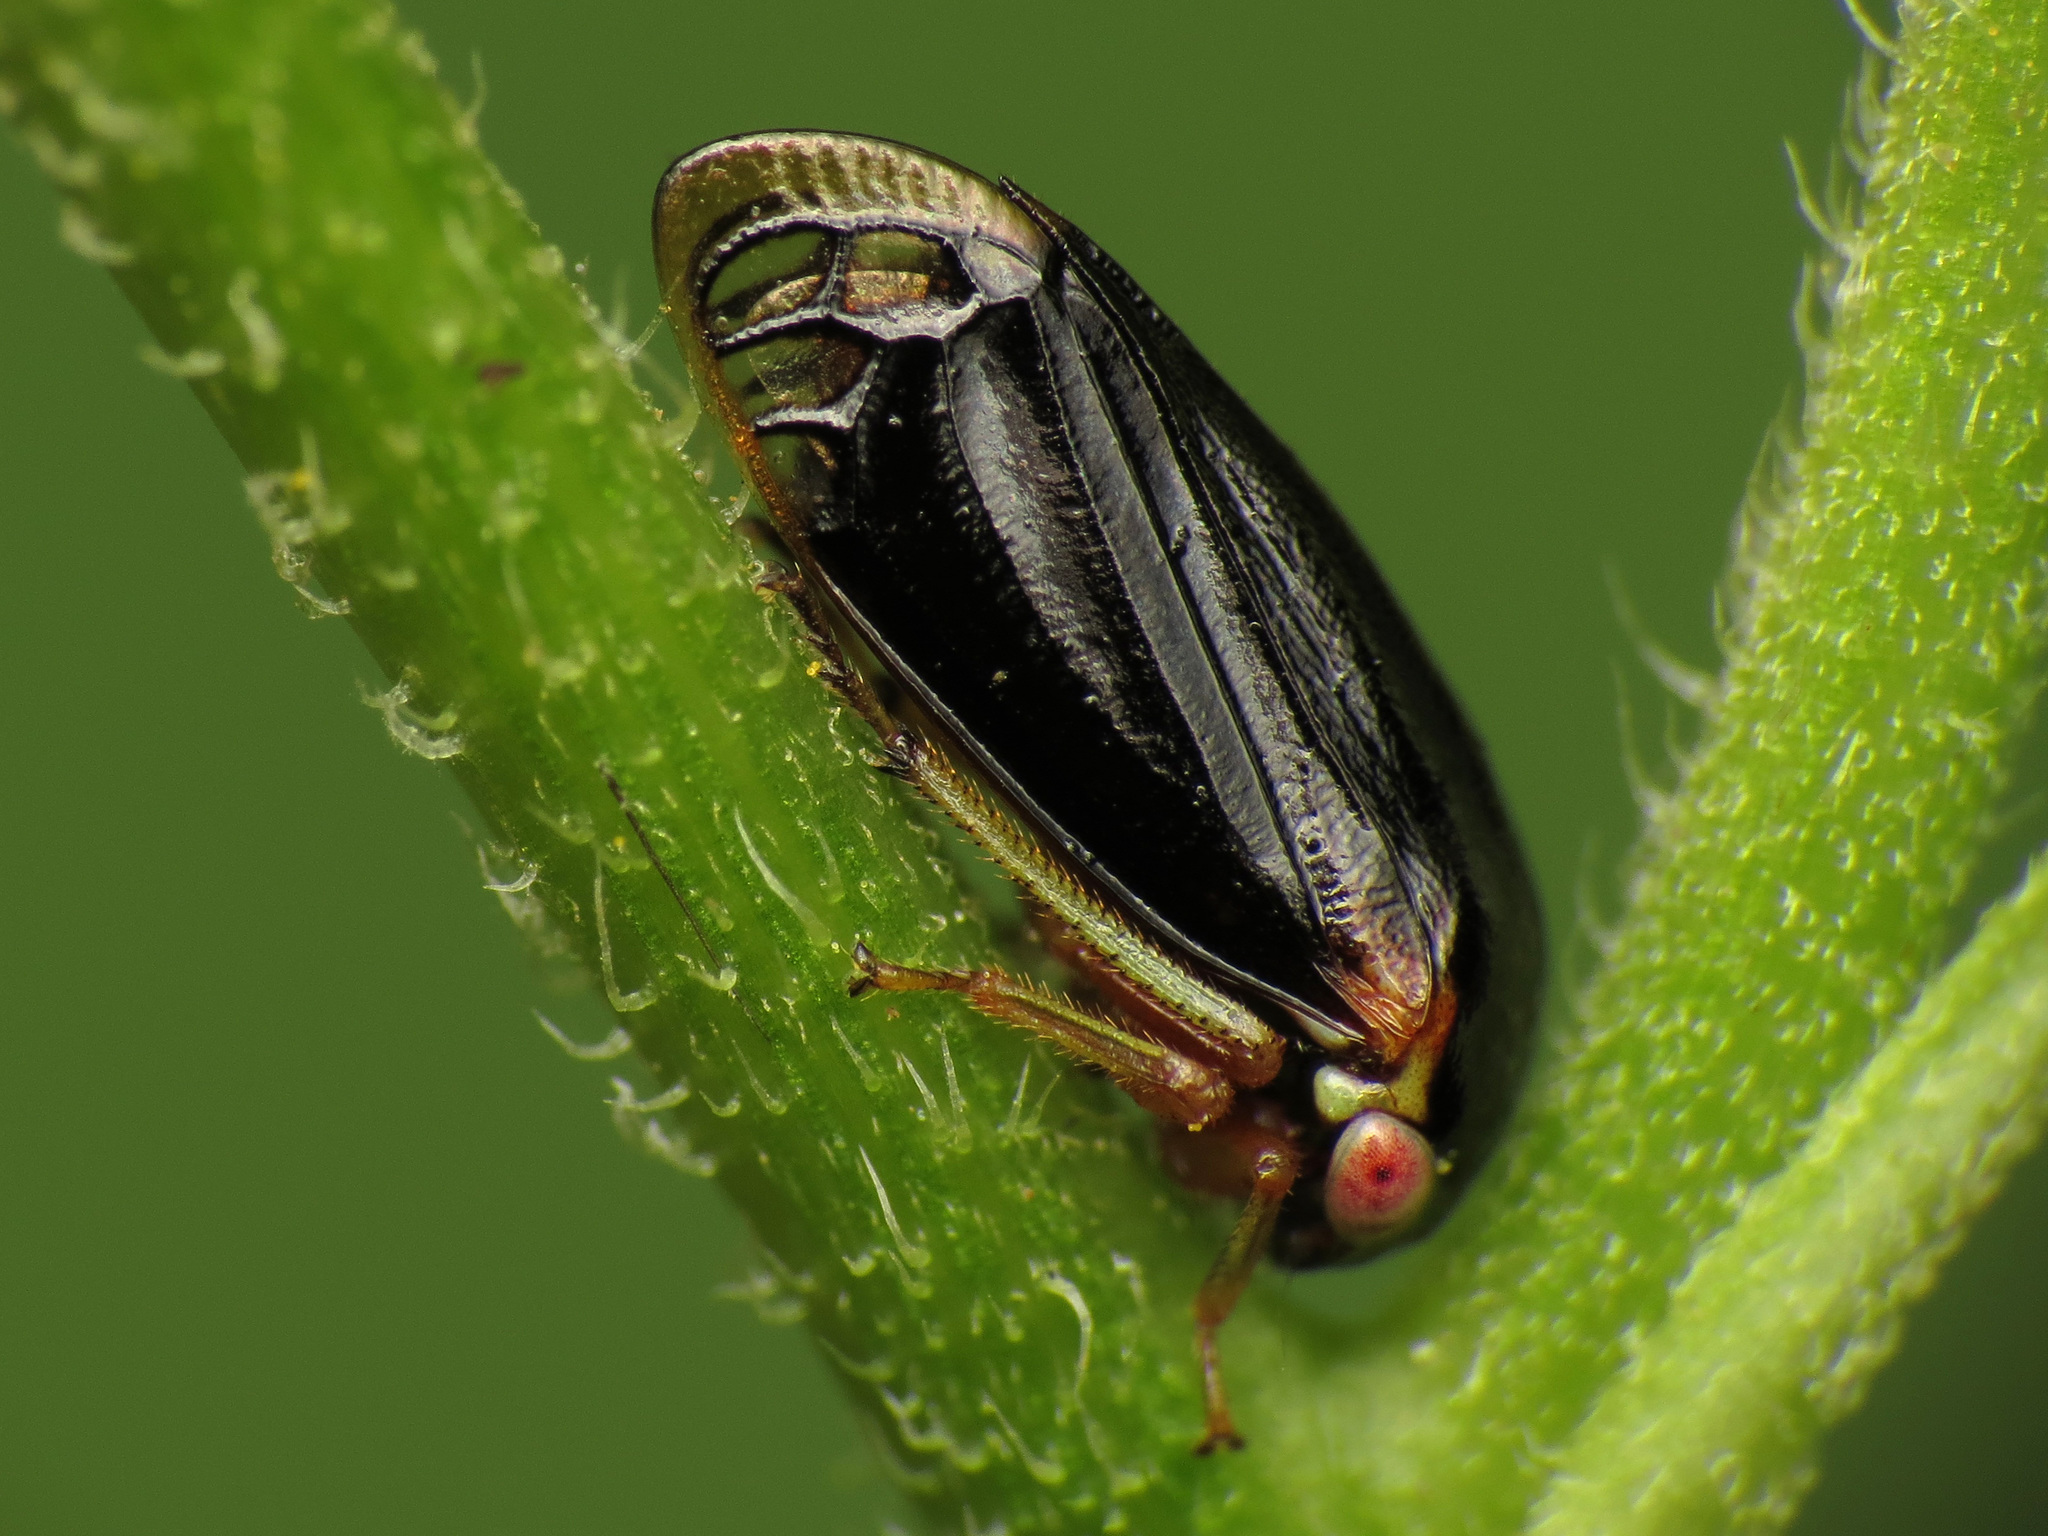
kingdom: Animalia
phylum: Arthropoda
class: Insecta
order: Hemiptera
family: Membracidae
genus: Acutalis
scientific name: Acutalis tartarea
